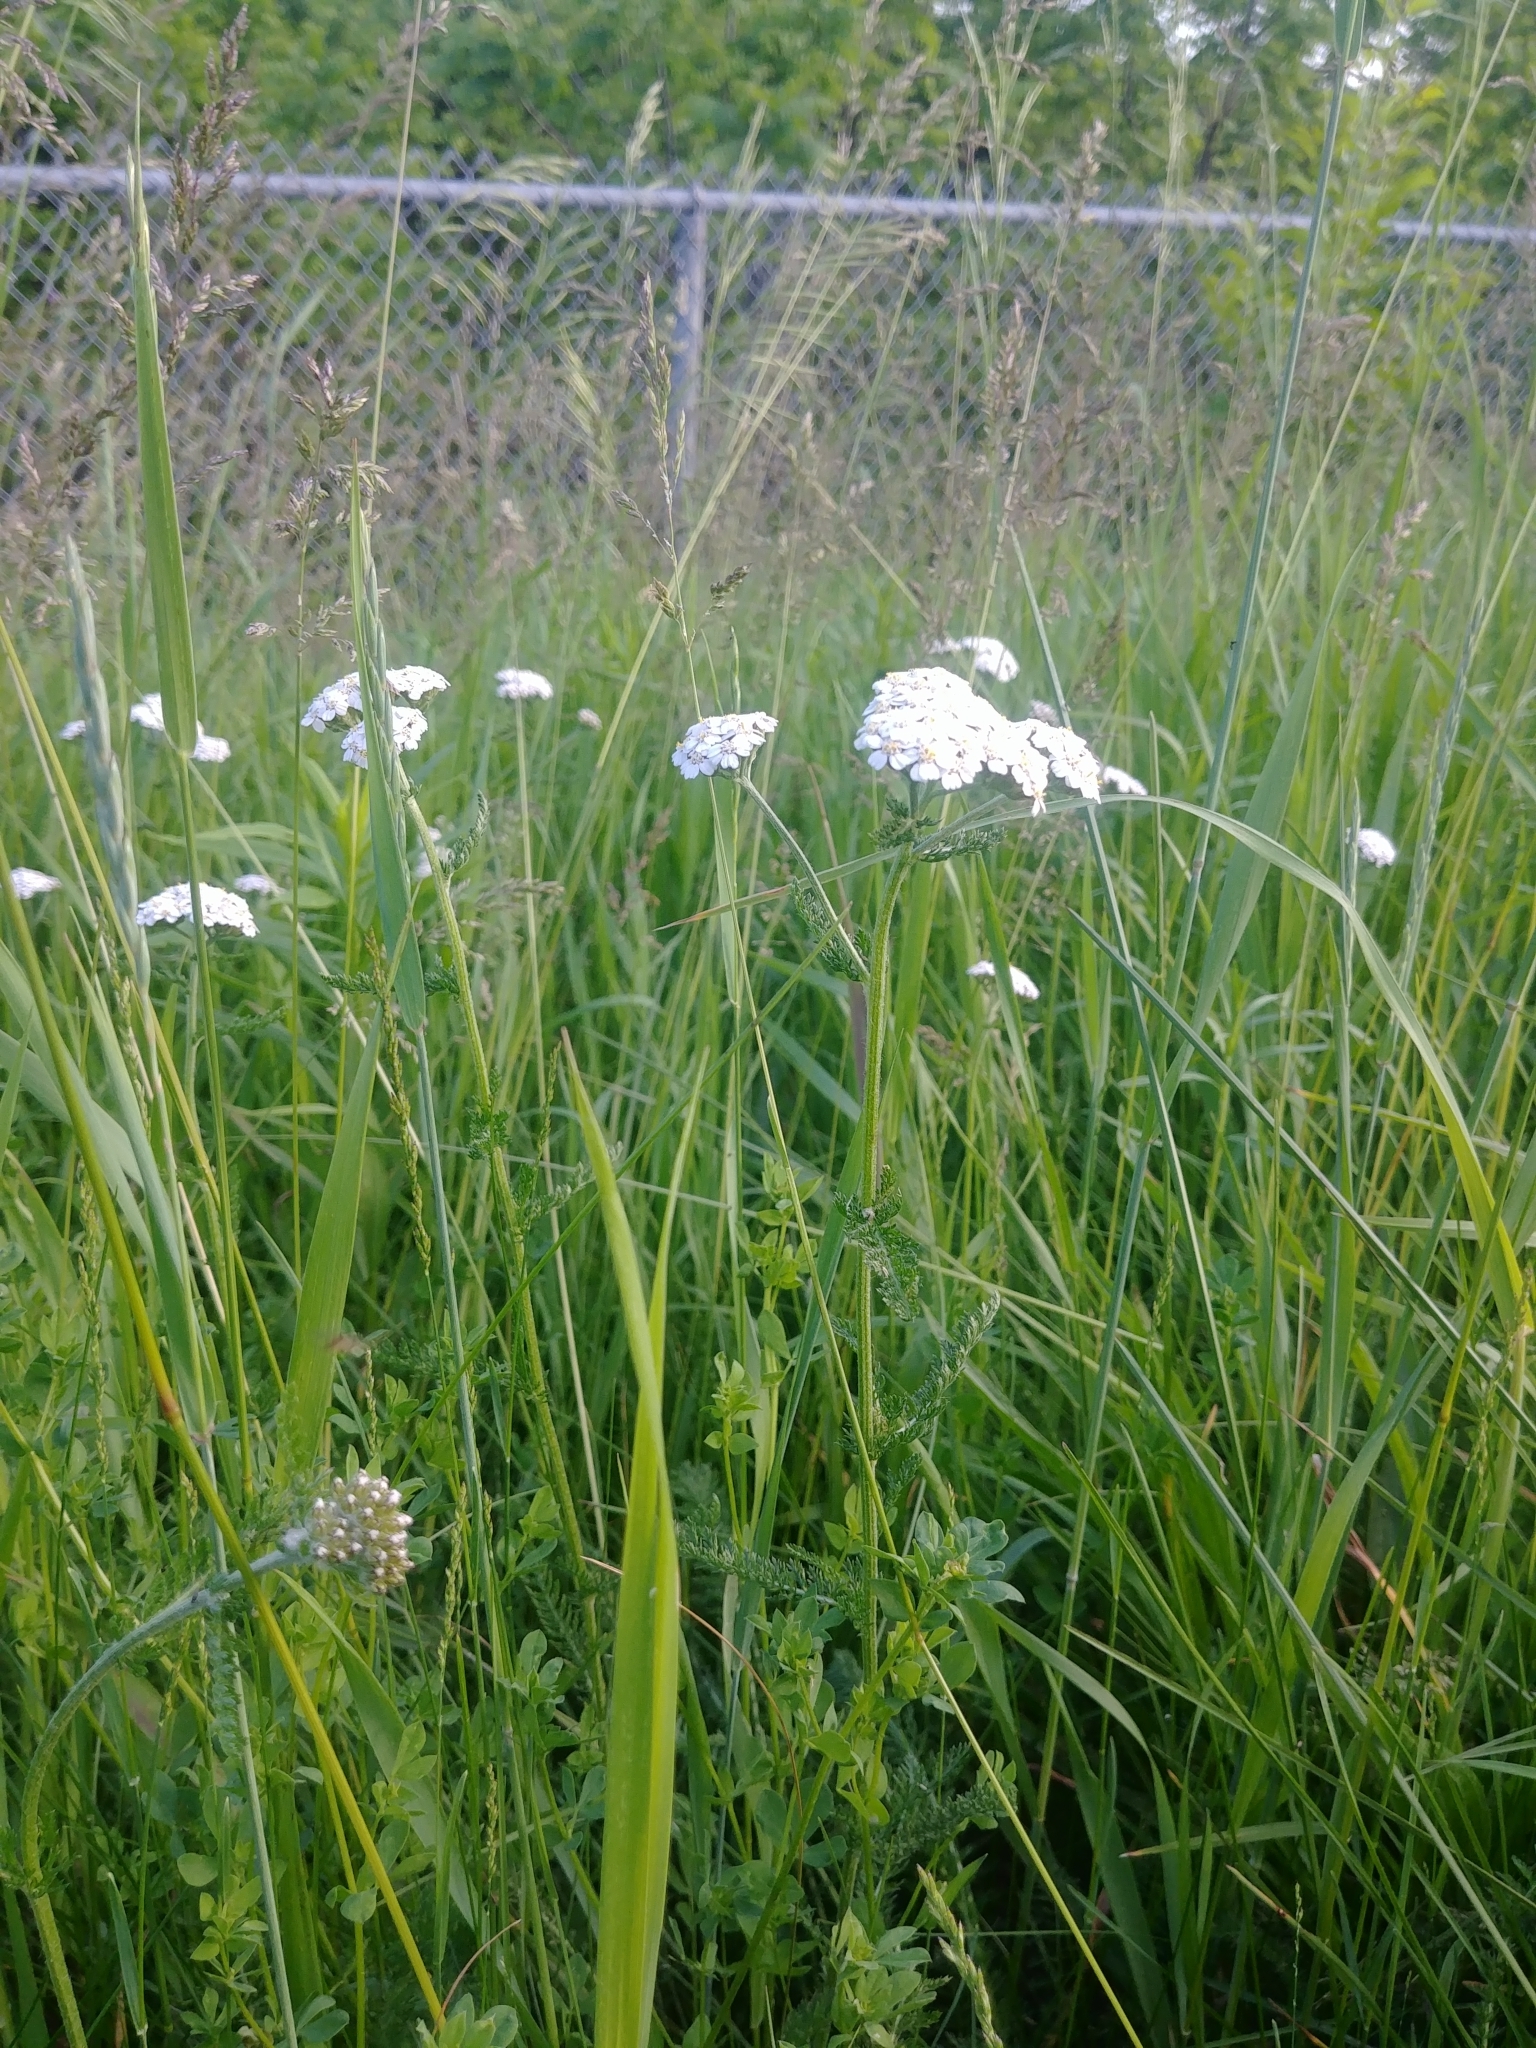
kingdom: Plantae
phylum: Tracheophyta
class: Magnoliopsida
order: Asterales
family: Asteraceae
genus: Achillea
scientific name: Achillea millefolium
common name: Yarrow
